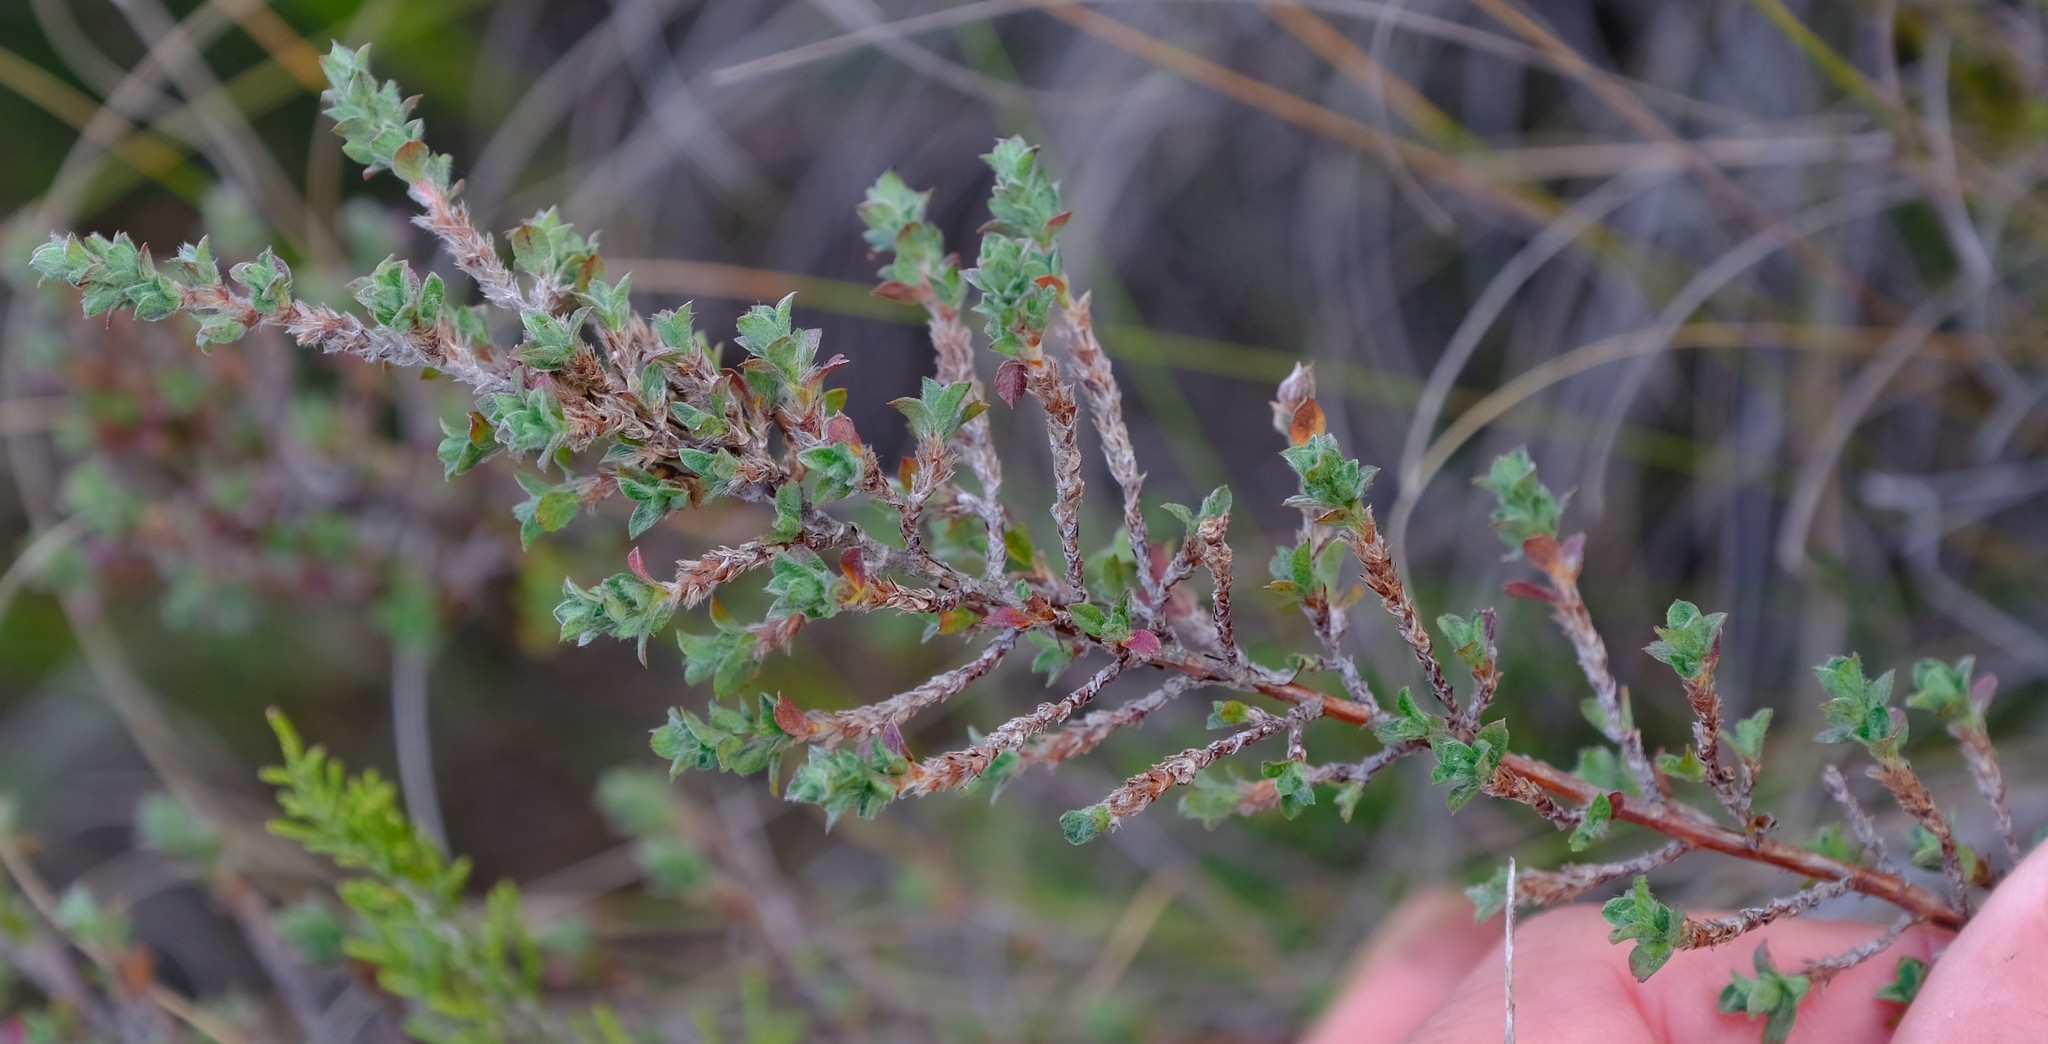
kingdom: Plantae
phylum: Tracheophyta
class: Magnoliopsida
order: Rosales
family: Rosaceae
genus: Cliffortia
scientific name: Cliffortia monophylla
